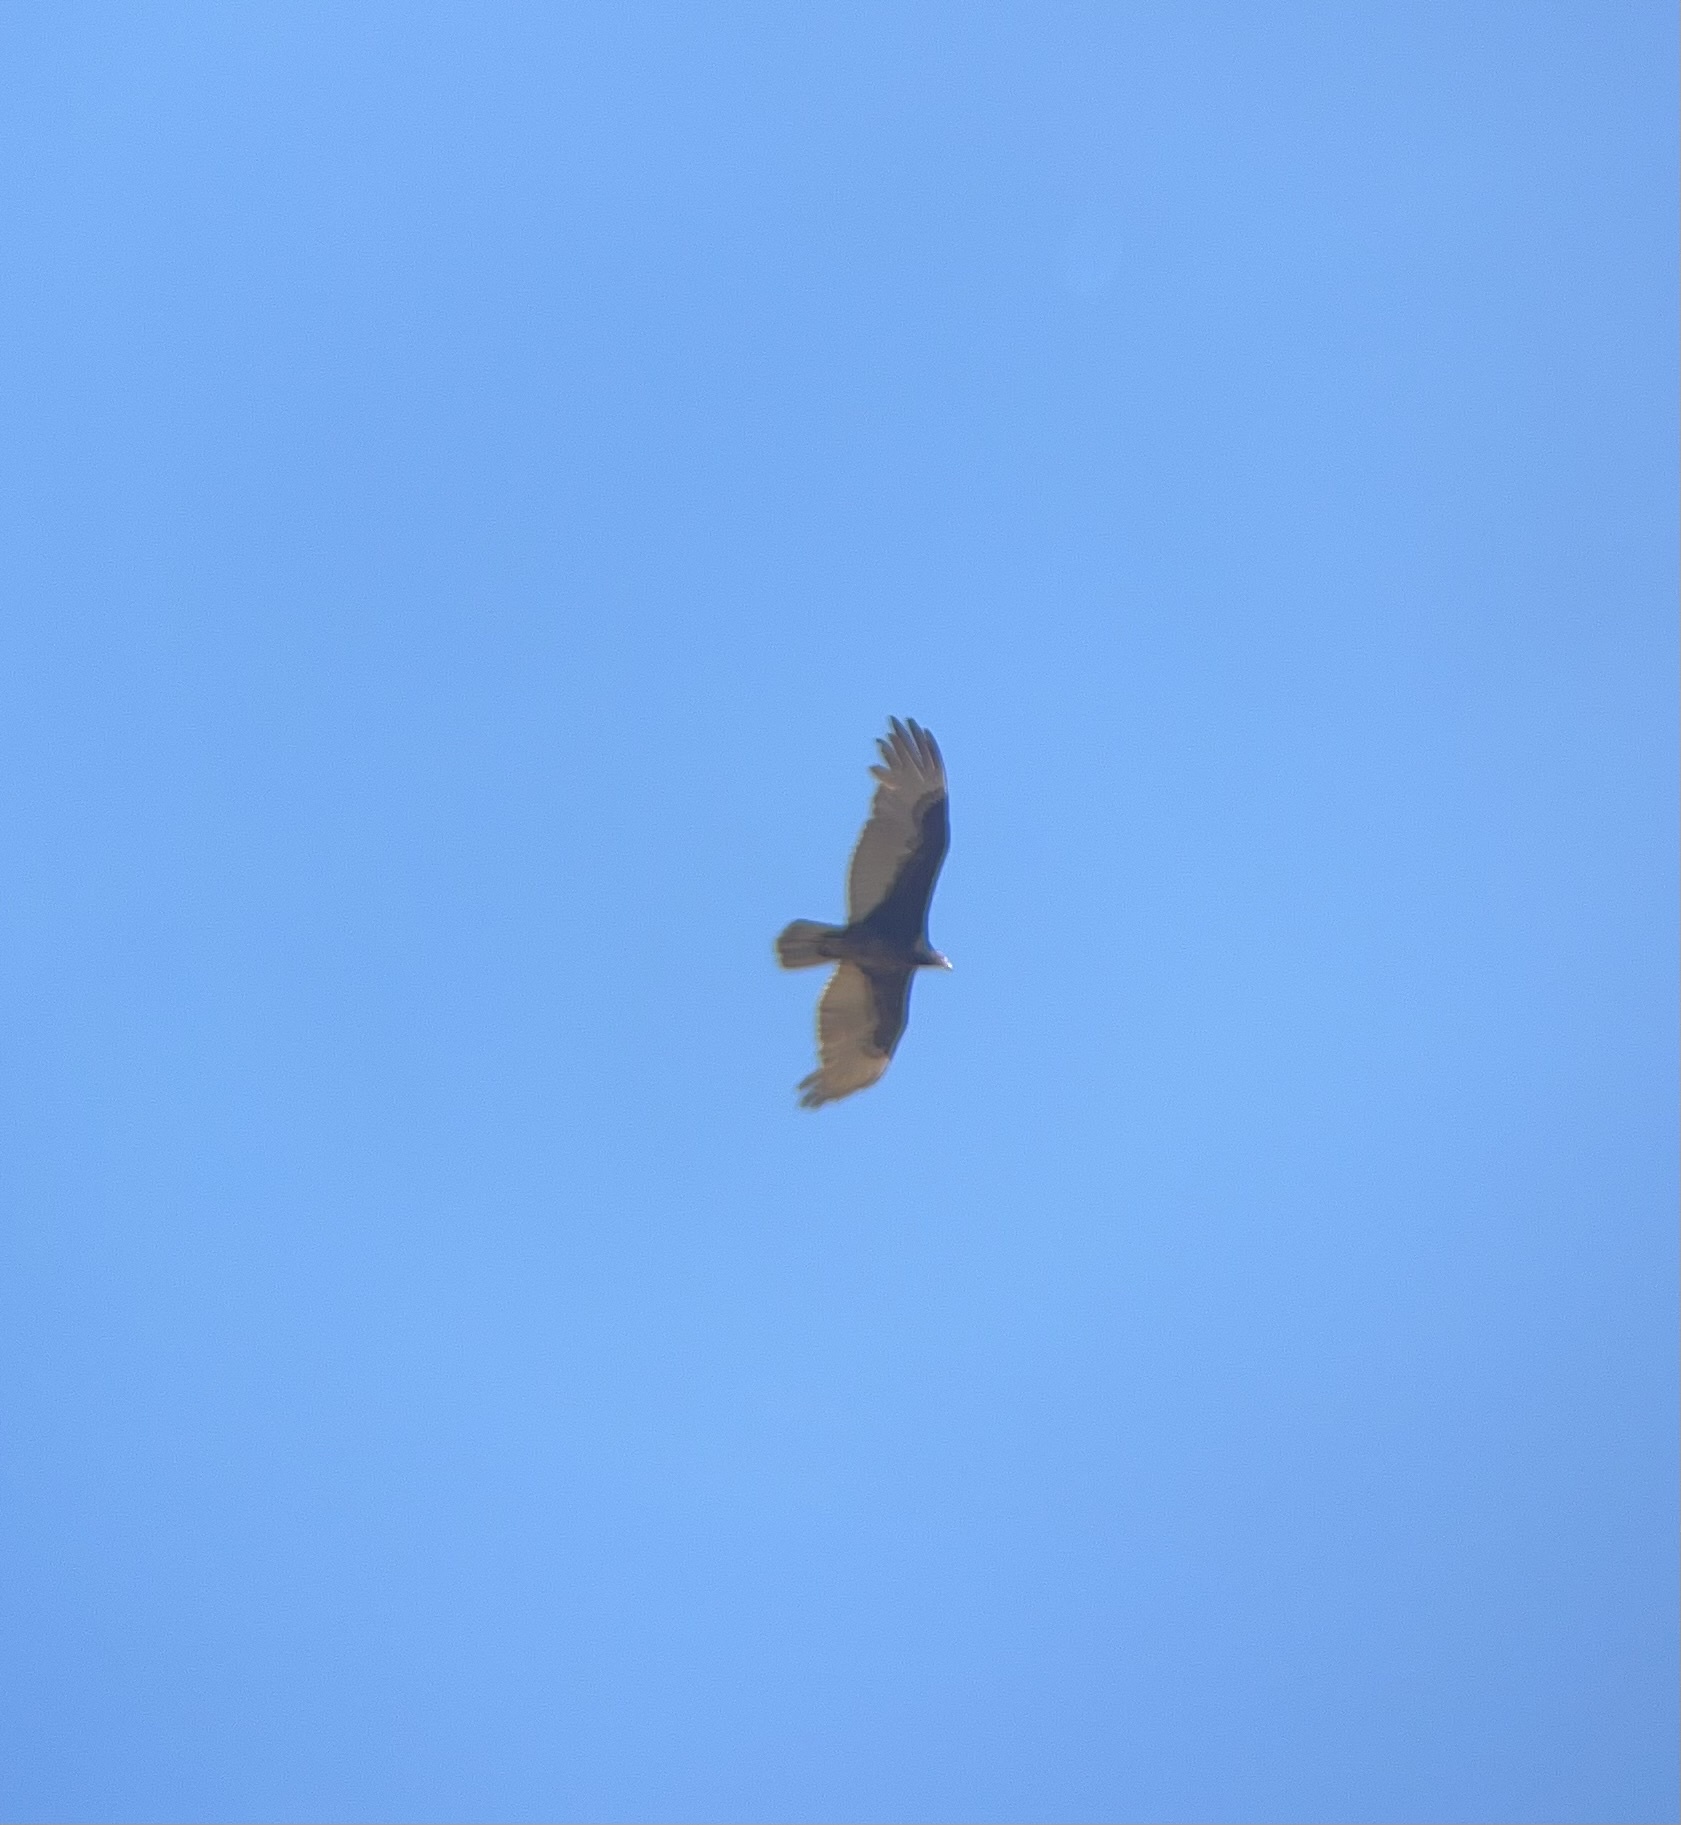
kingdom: Animalia
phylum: Chordata
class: Aves
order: Accipitriformes
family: Cathartidae
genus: Cathartes
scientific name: Cathartes aura
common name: Turkey vulture
